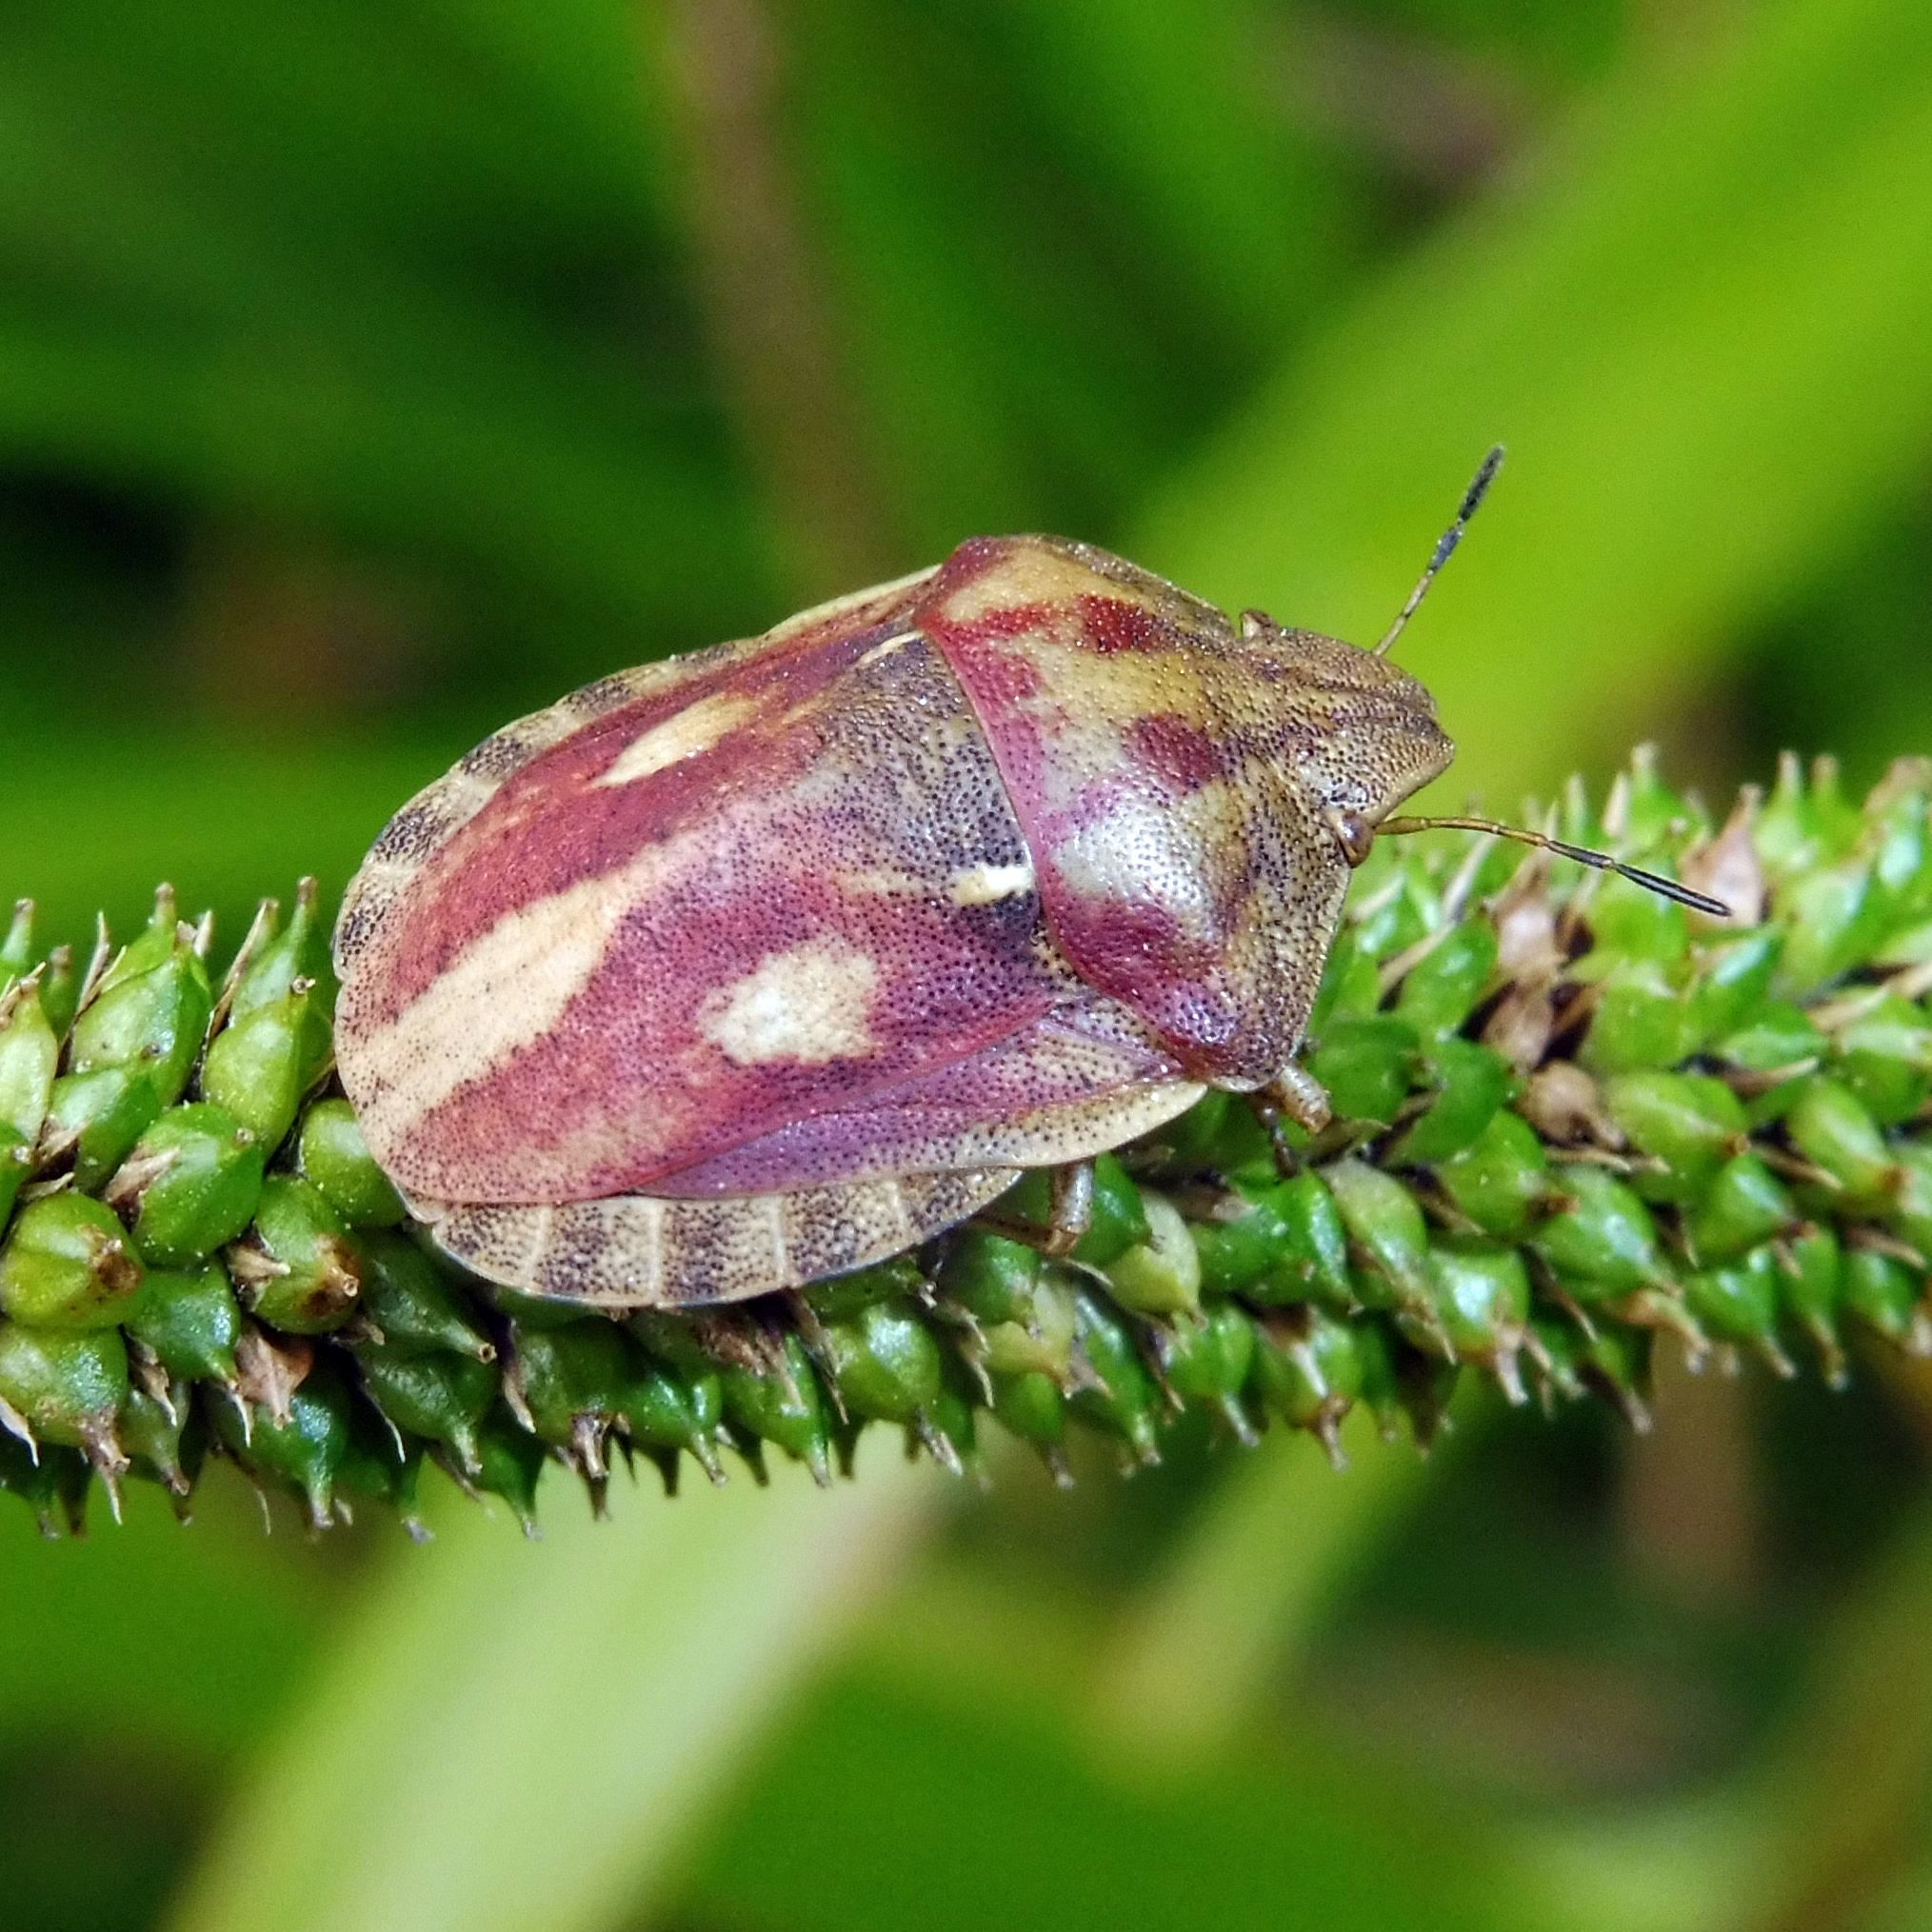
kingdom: Animalia
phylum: Arthropoda
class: Insecta
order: Hemiptera
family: Scutelleridae
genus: Eurygaster
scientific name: Eurygaster testudinaria
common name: Tortoise bug
